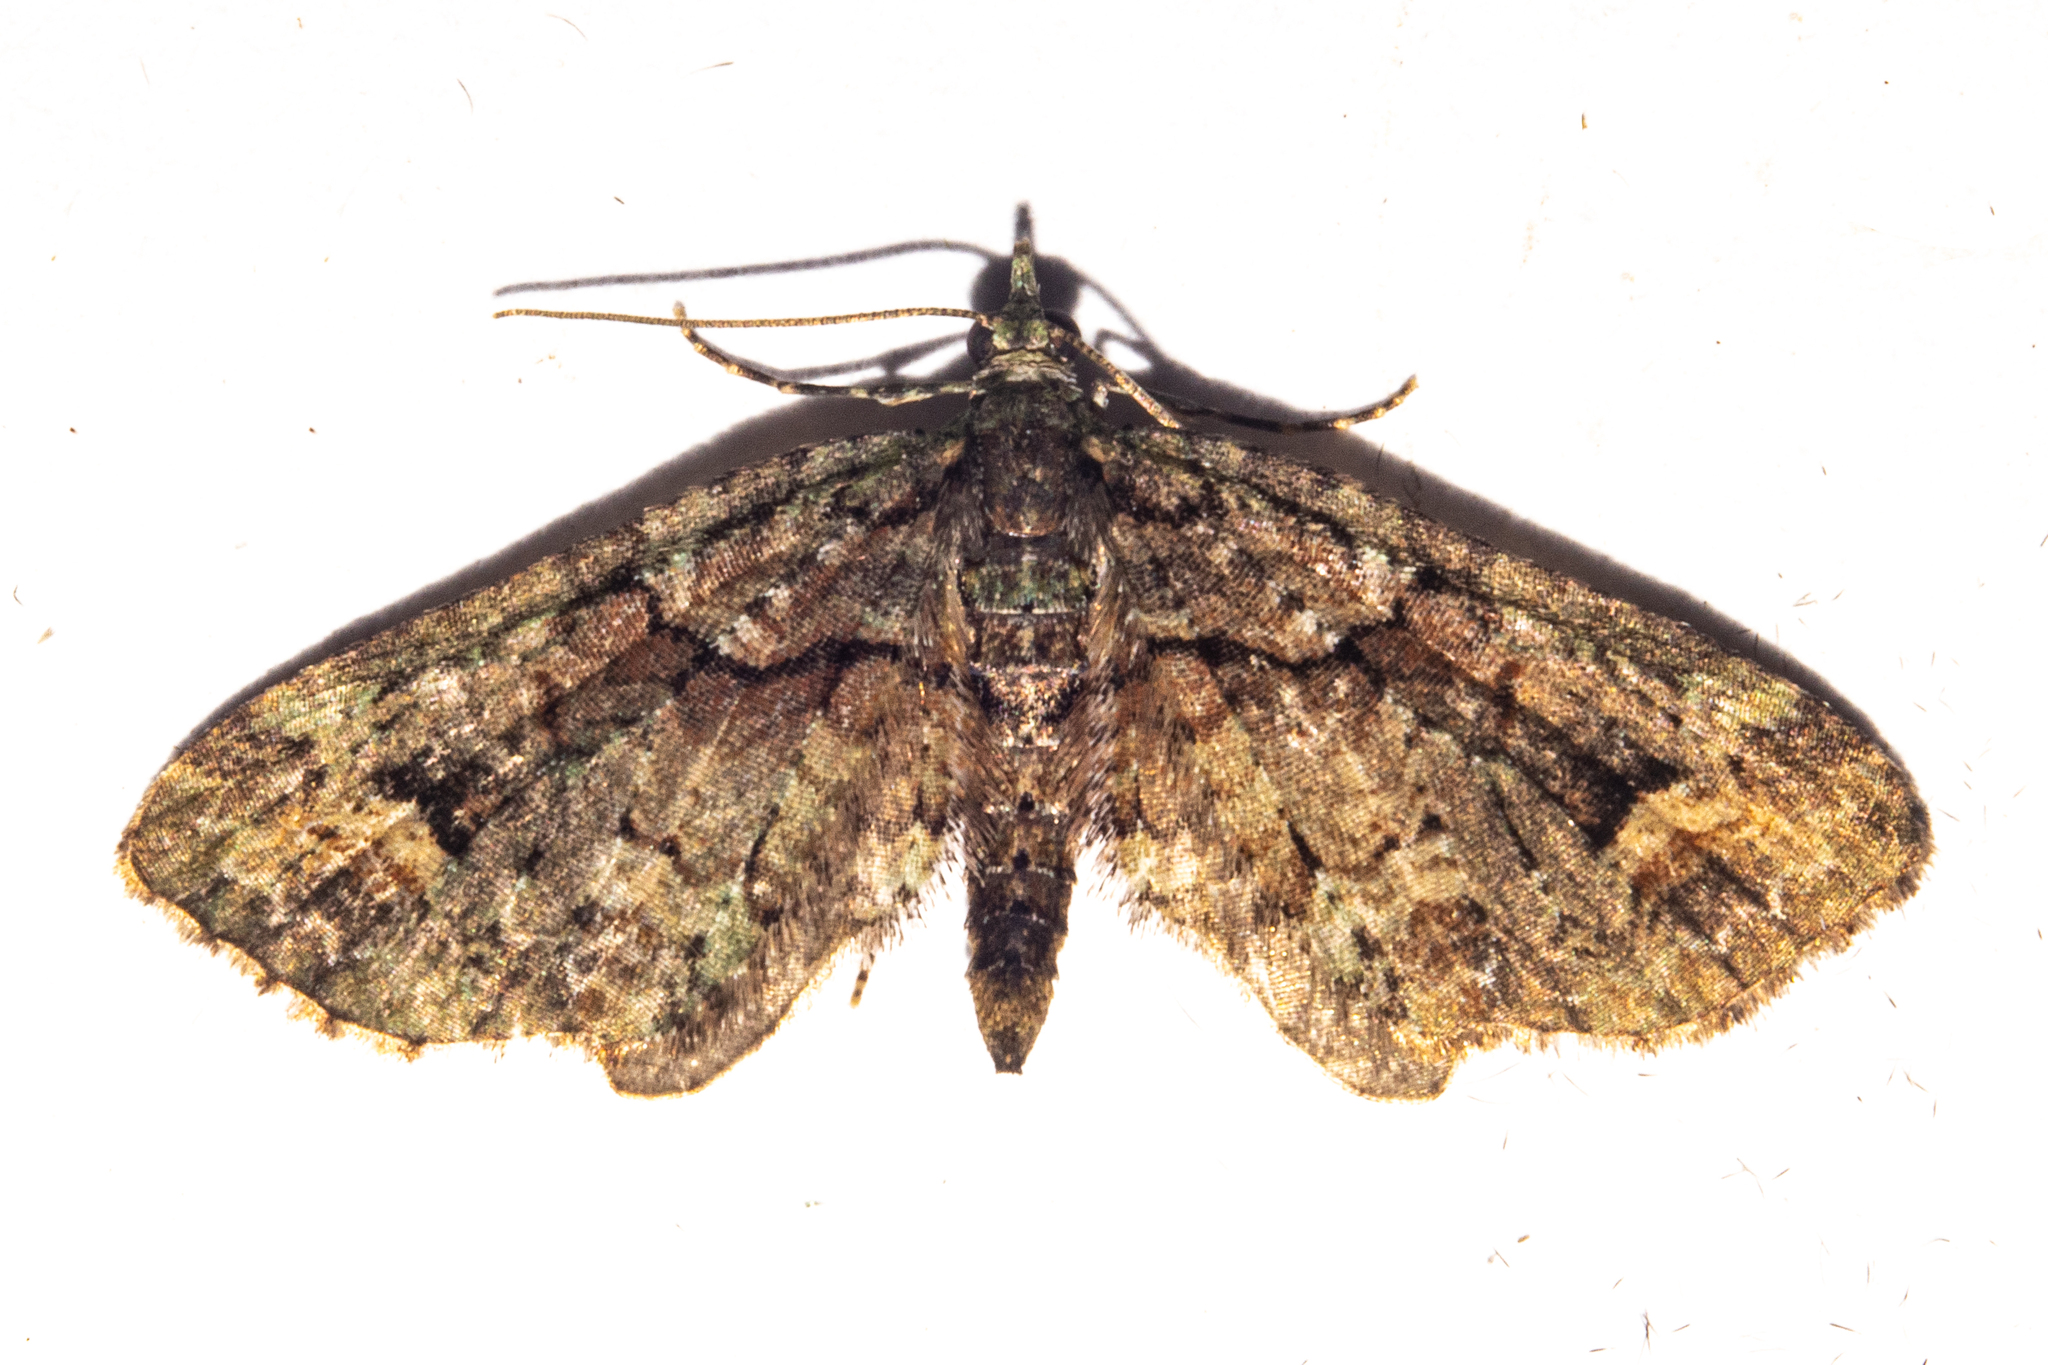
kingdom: Animalia
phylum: Arthropoda
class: Insecta
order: Lepidoptera
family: Geometridae
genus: Idaea
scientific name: Idaea mutanda
